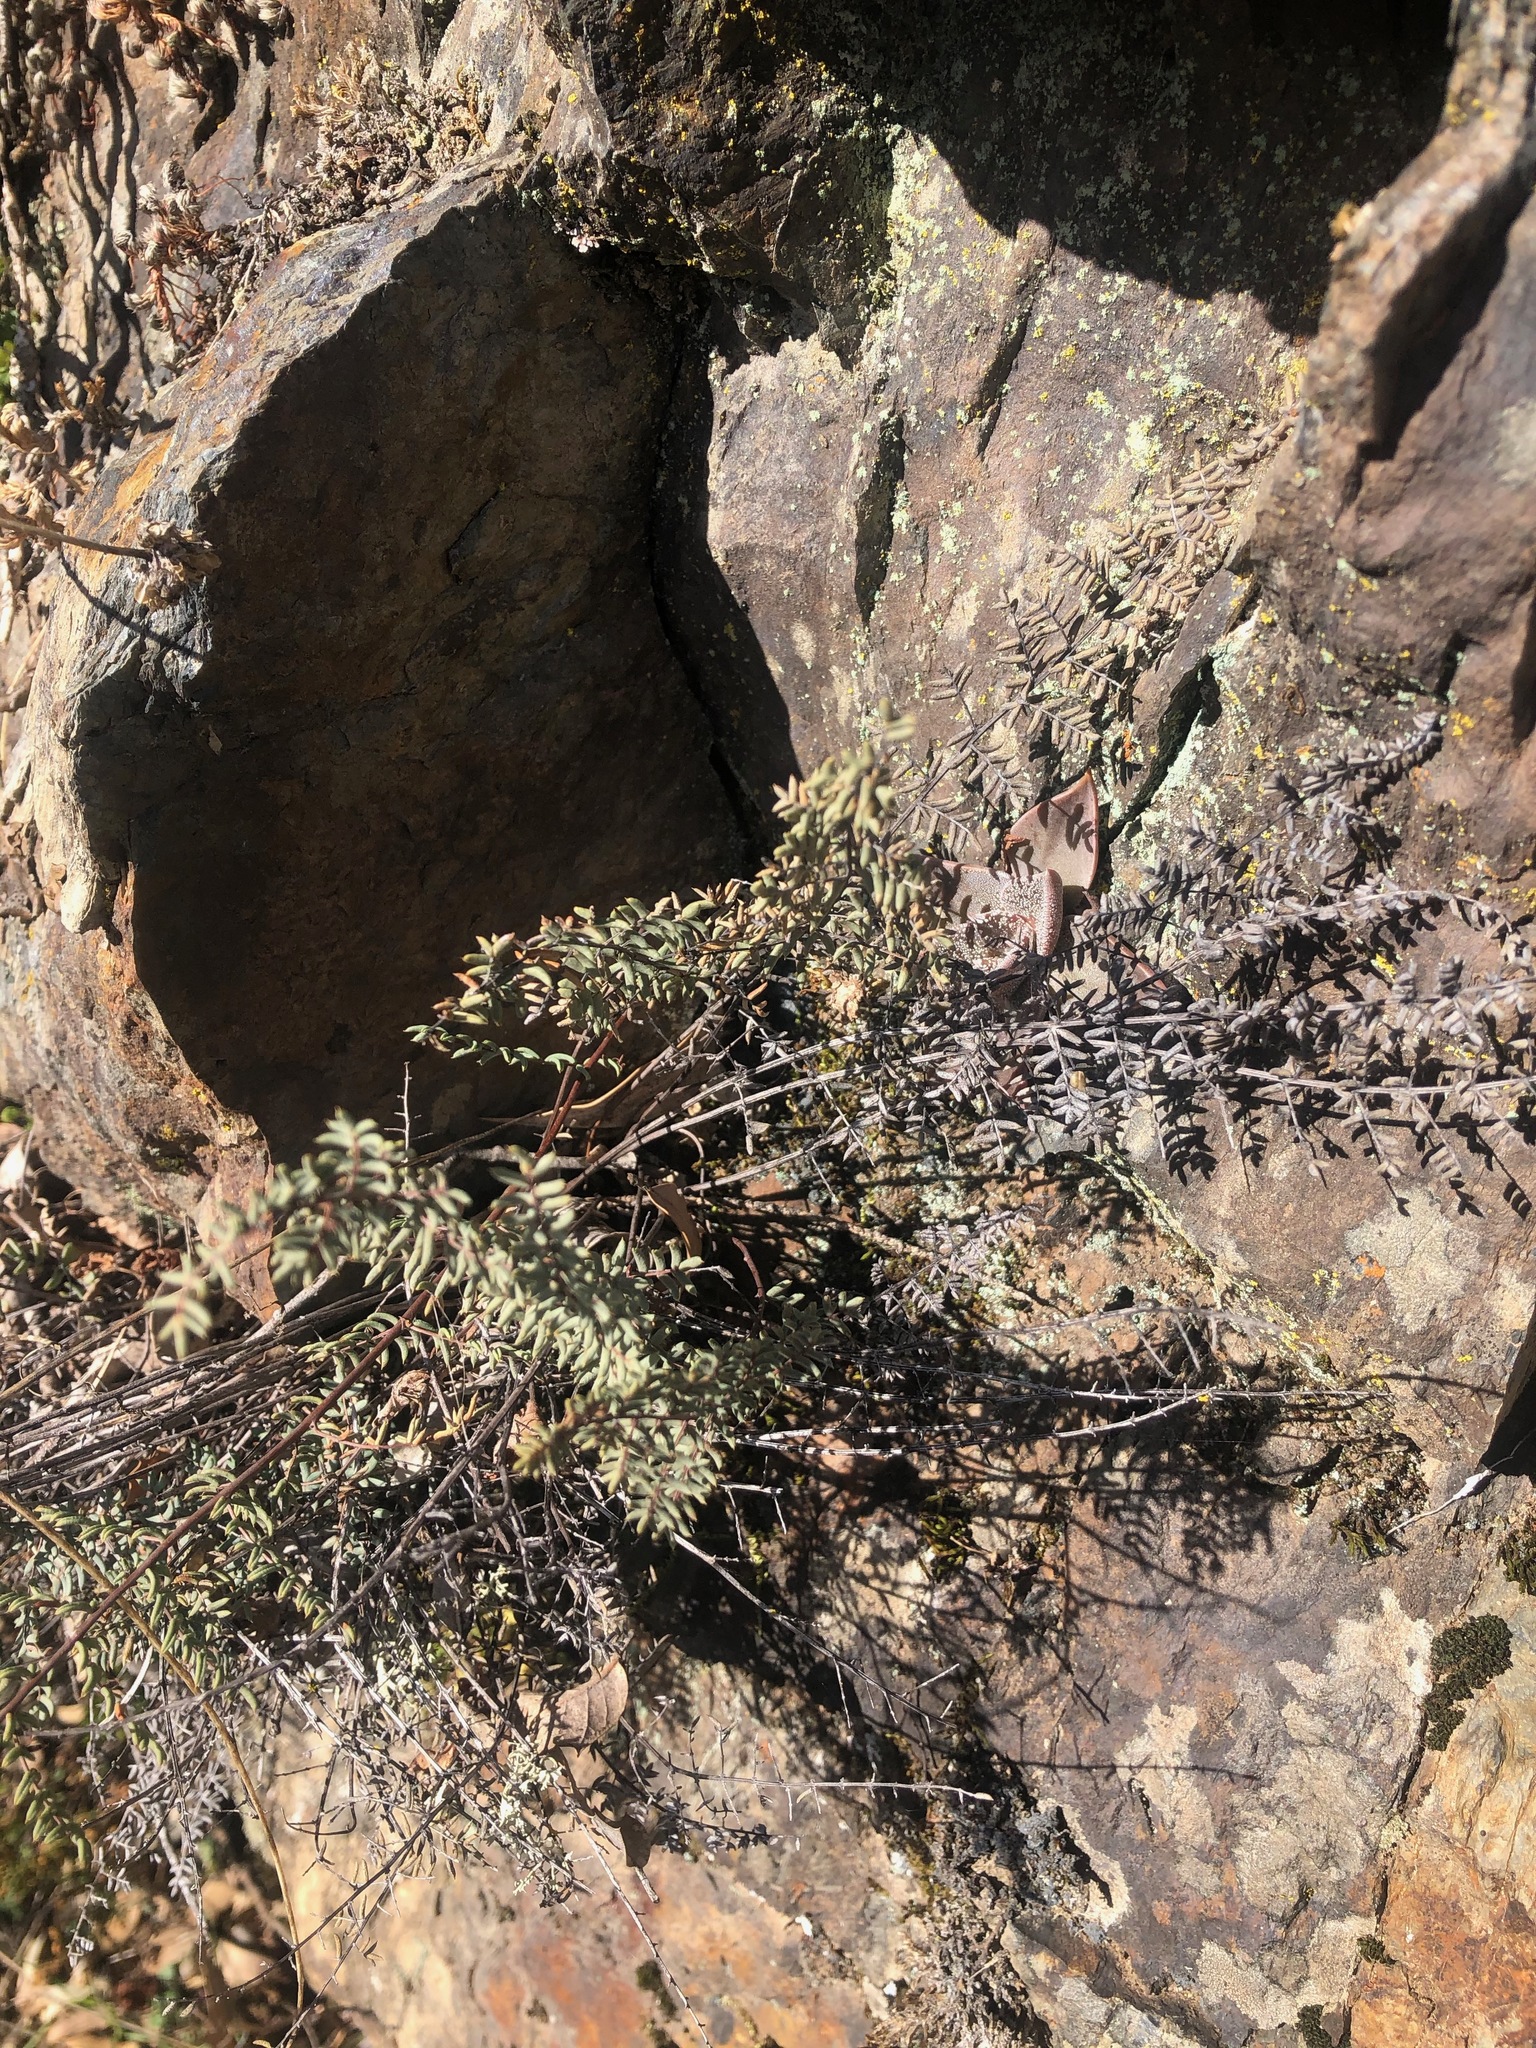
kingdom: Plantae
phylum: Tracheophyta
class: Polypodiopsida
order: Polypodiales
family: Pteridaceae
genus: Pellaea
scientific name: Pellaea mucronata
